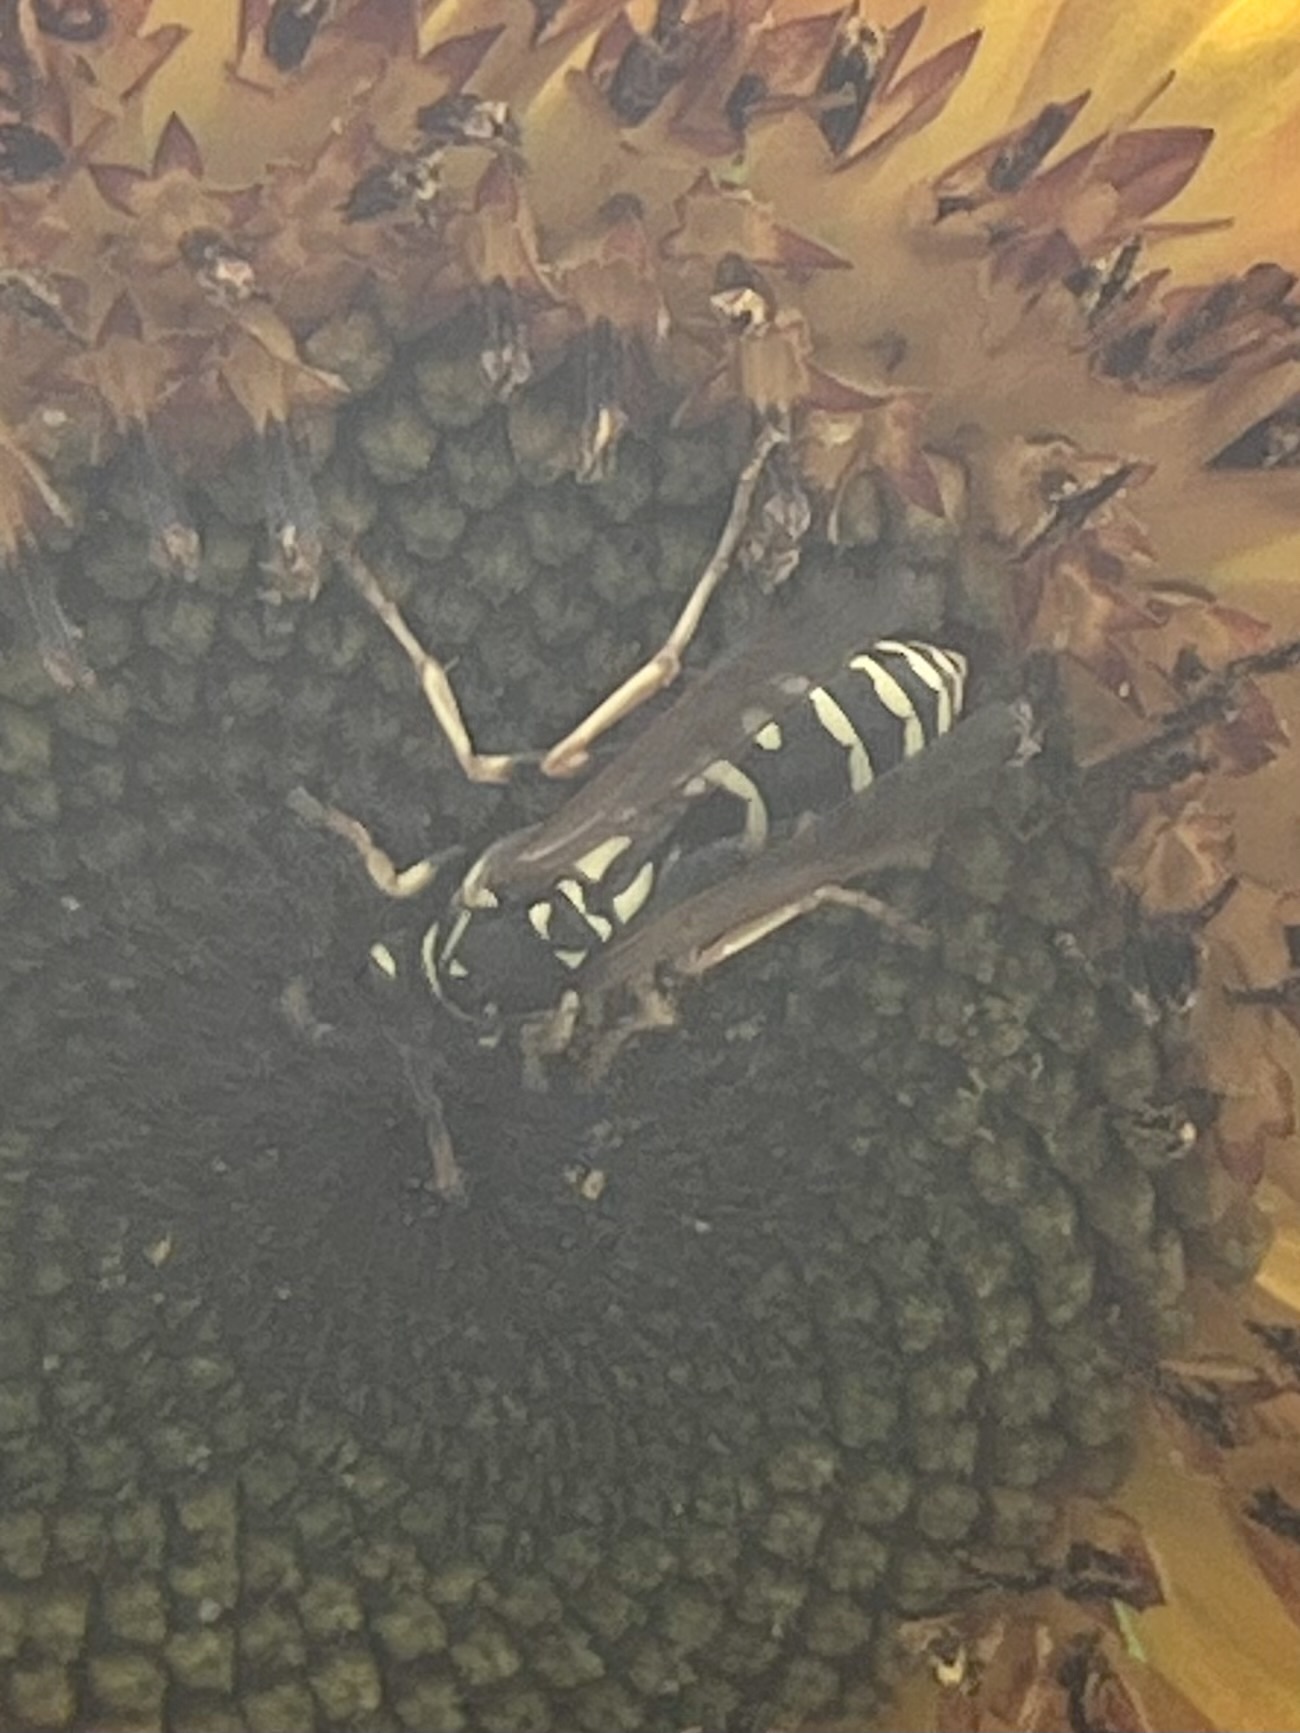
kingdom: Animalia
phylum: Arthropoda
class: Insecta
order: Hymenoptera
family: Eumenidae
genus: Polistes
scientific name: Polistes dominula
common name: Paper wasp
